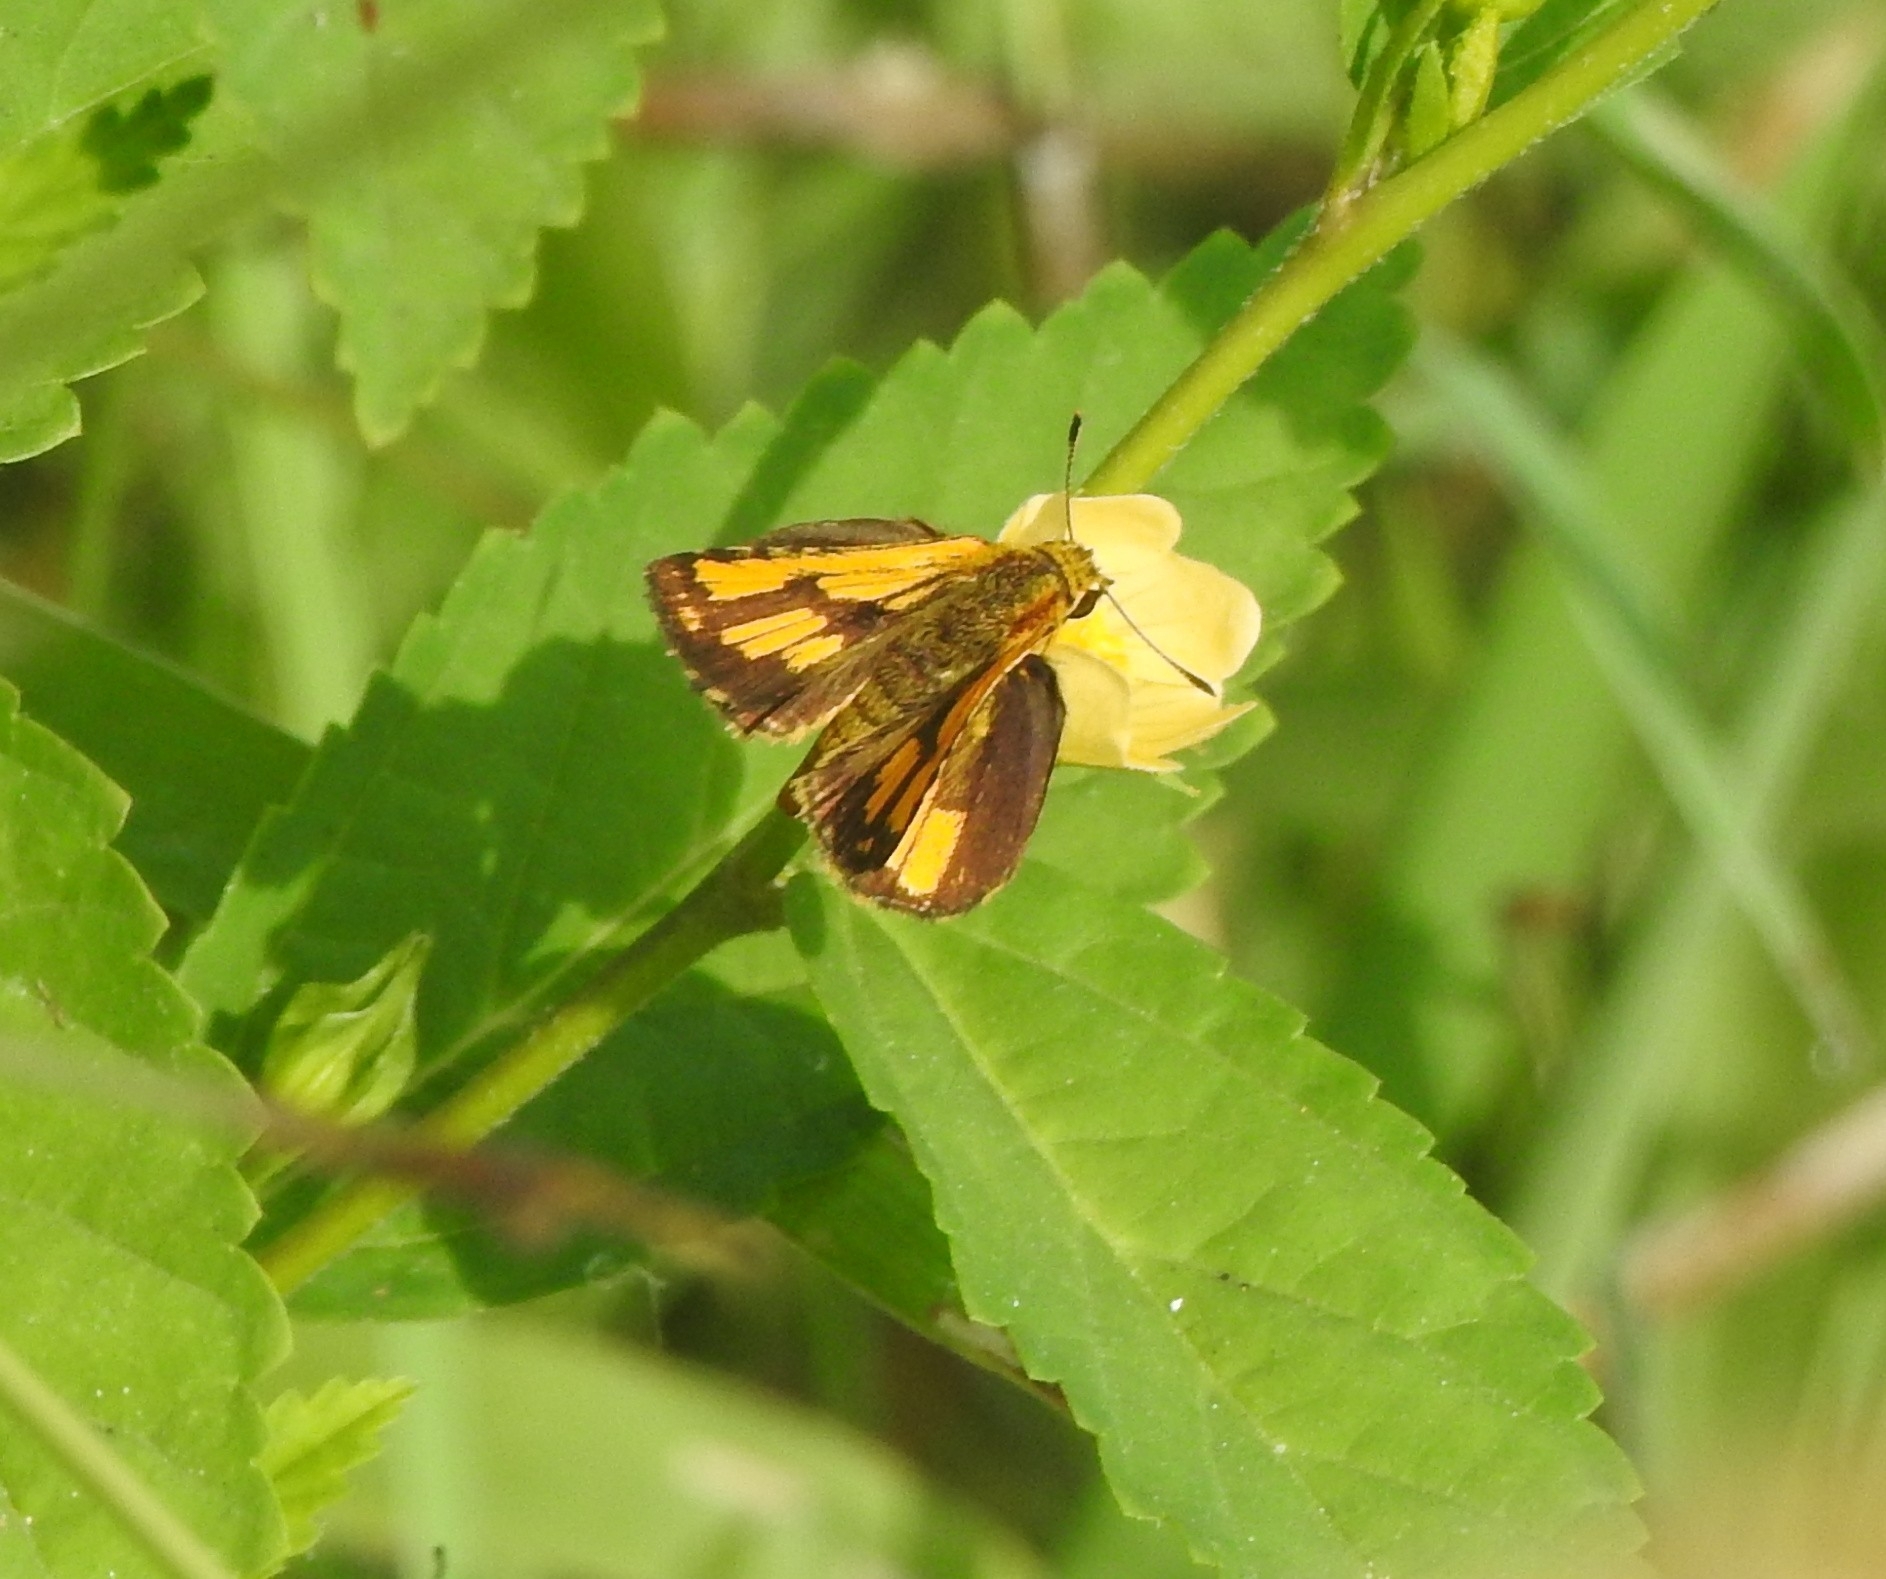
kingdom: Animalia
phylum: Arthropoda
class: Insecta
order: Lepidoptera
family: Hesperiidae
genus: Ampittia
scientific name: Ampittia dioscorides
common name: Common bush hopper
